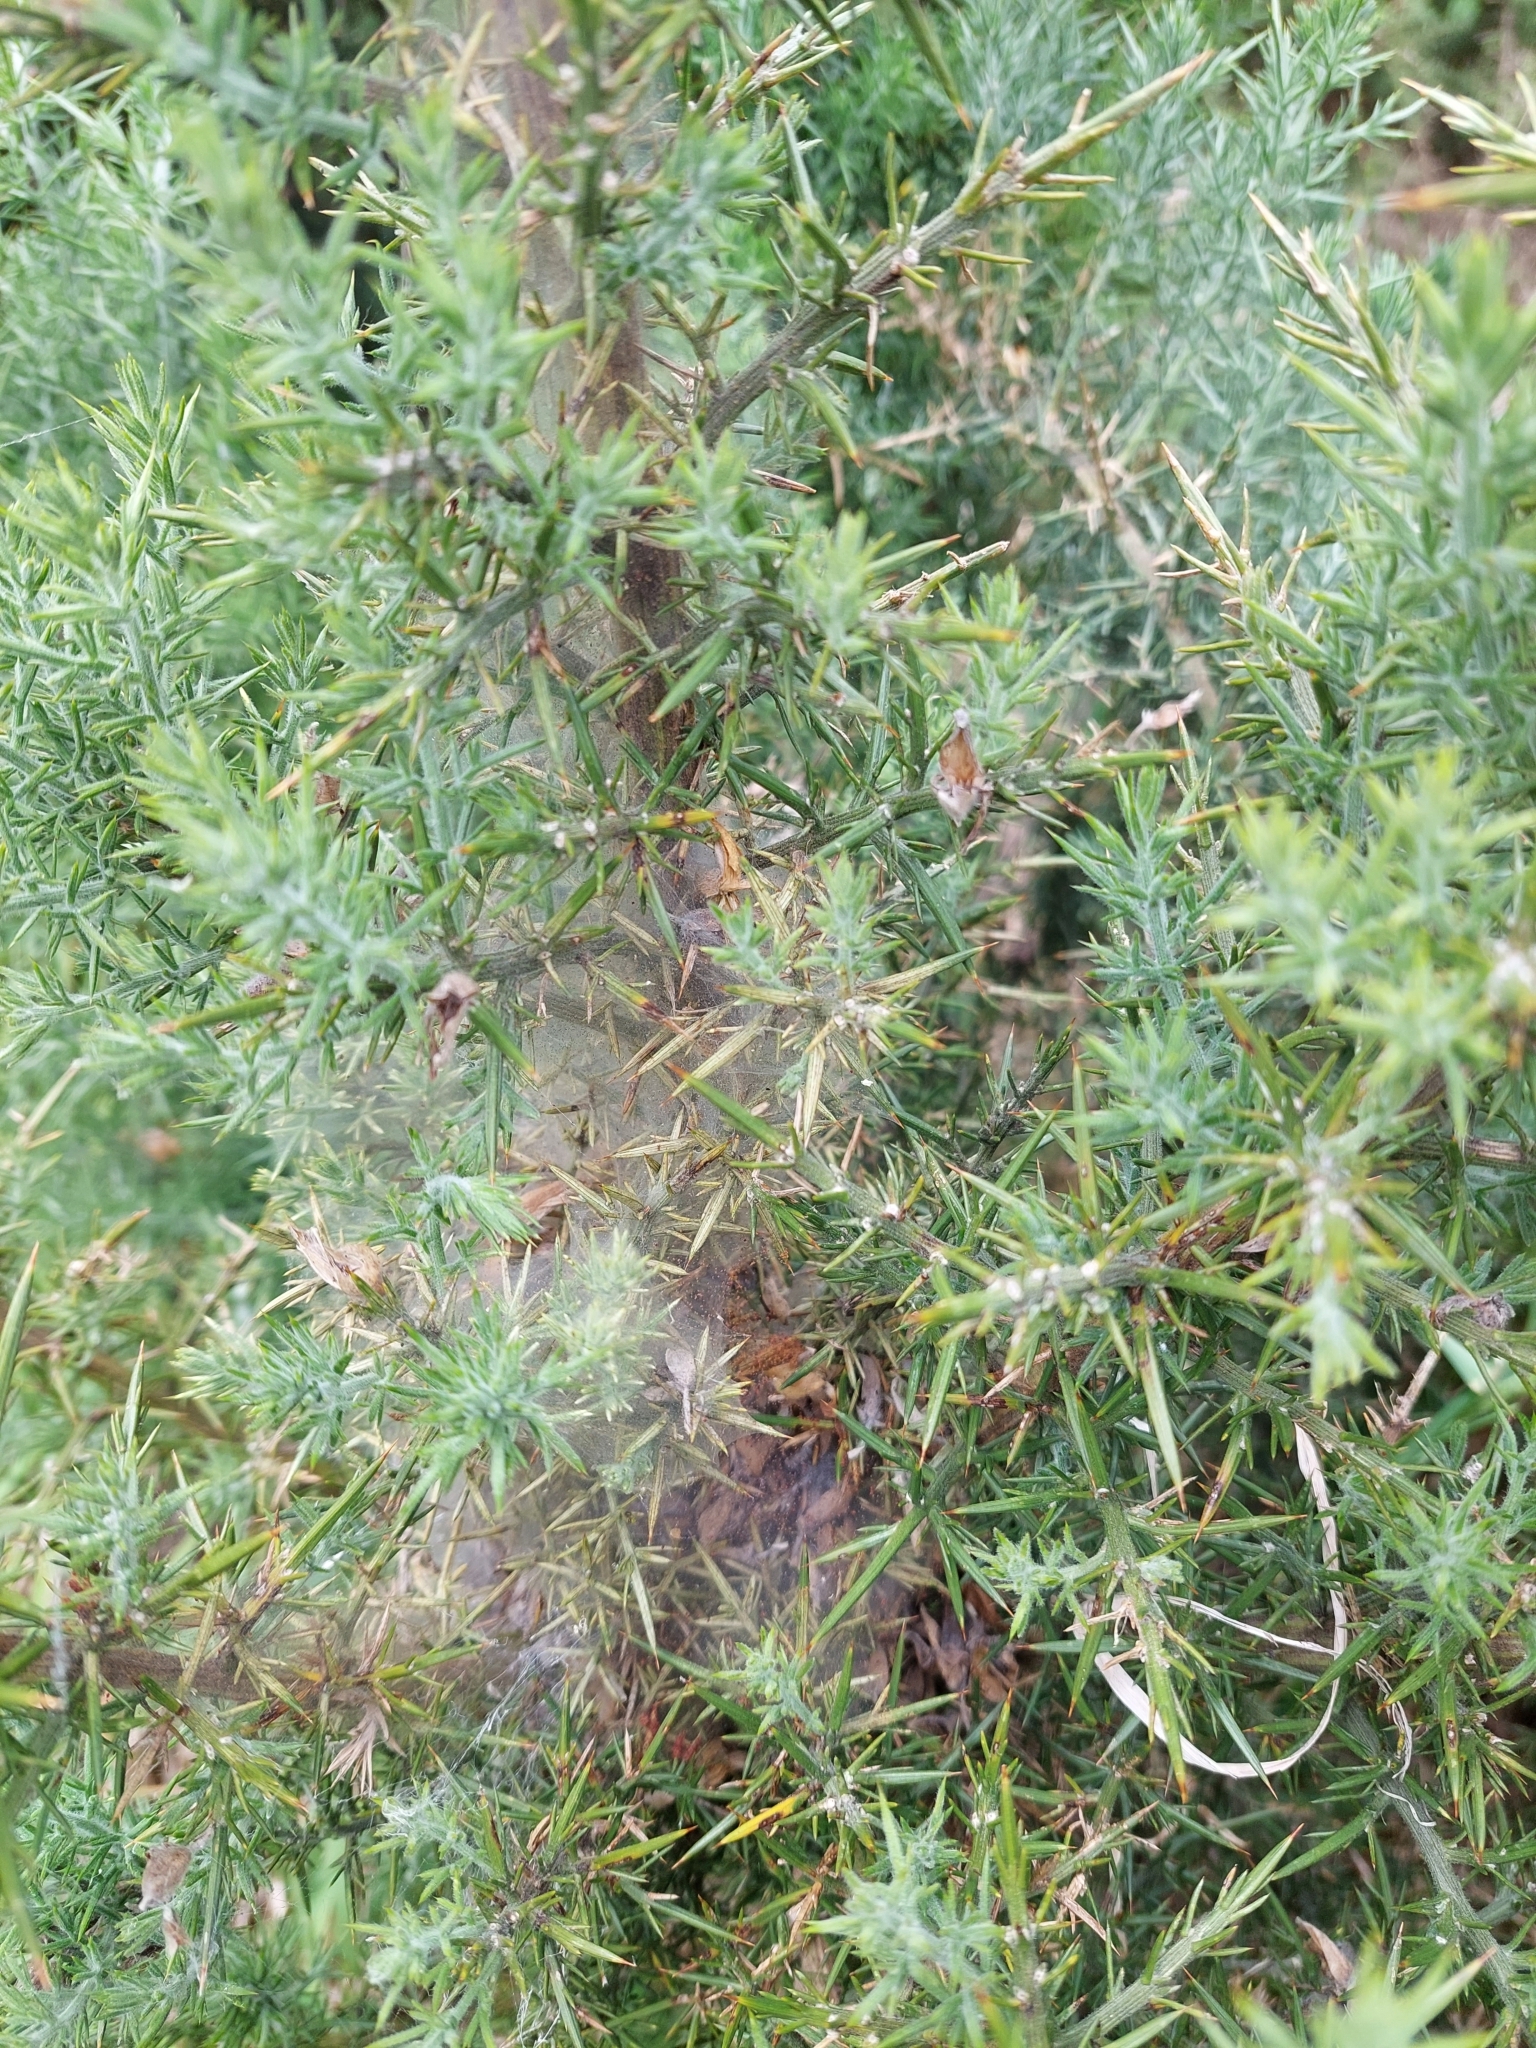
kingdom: Animalia
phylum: Arthropoda
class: Arachnida
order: Trombidiformes
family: Tetranychidae
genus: Tetranychus
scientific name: Tetranychus lintearius
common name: Gorse spider mite
